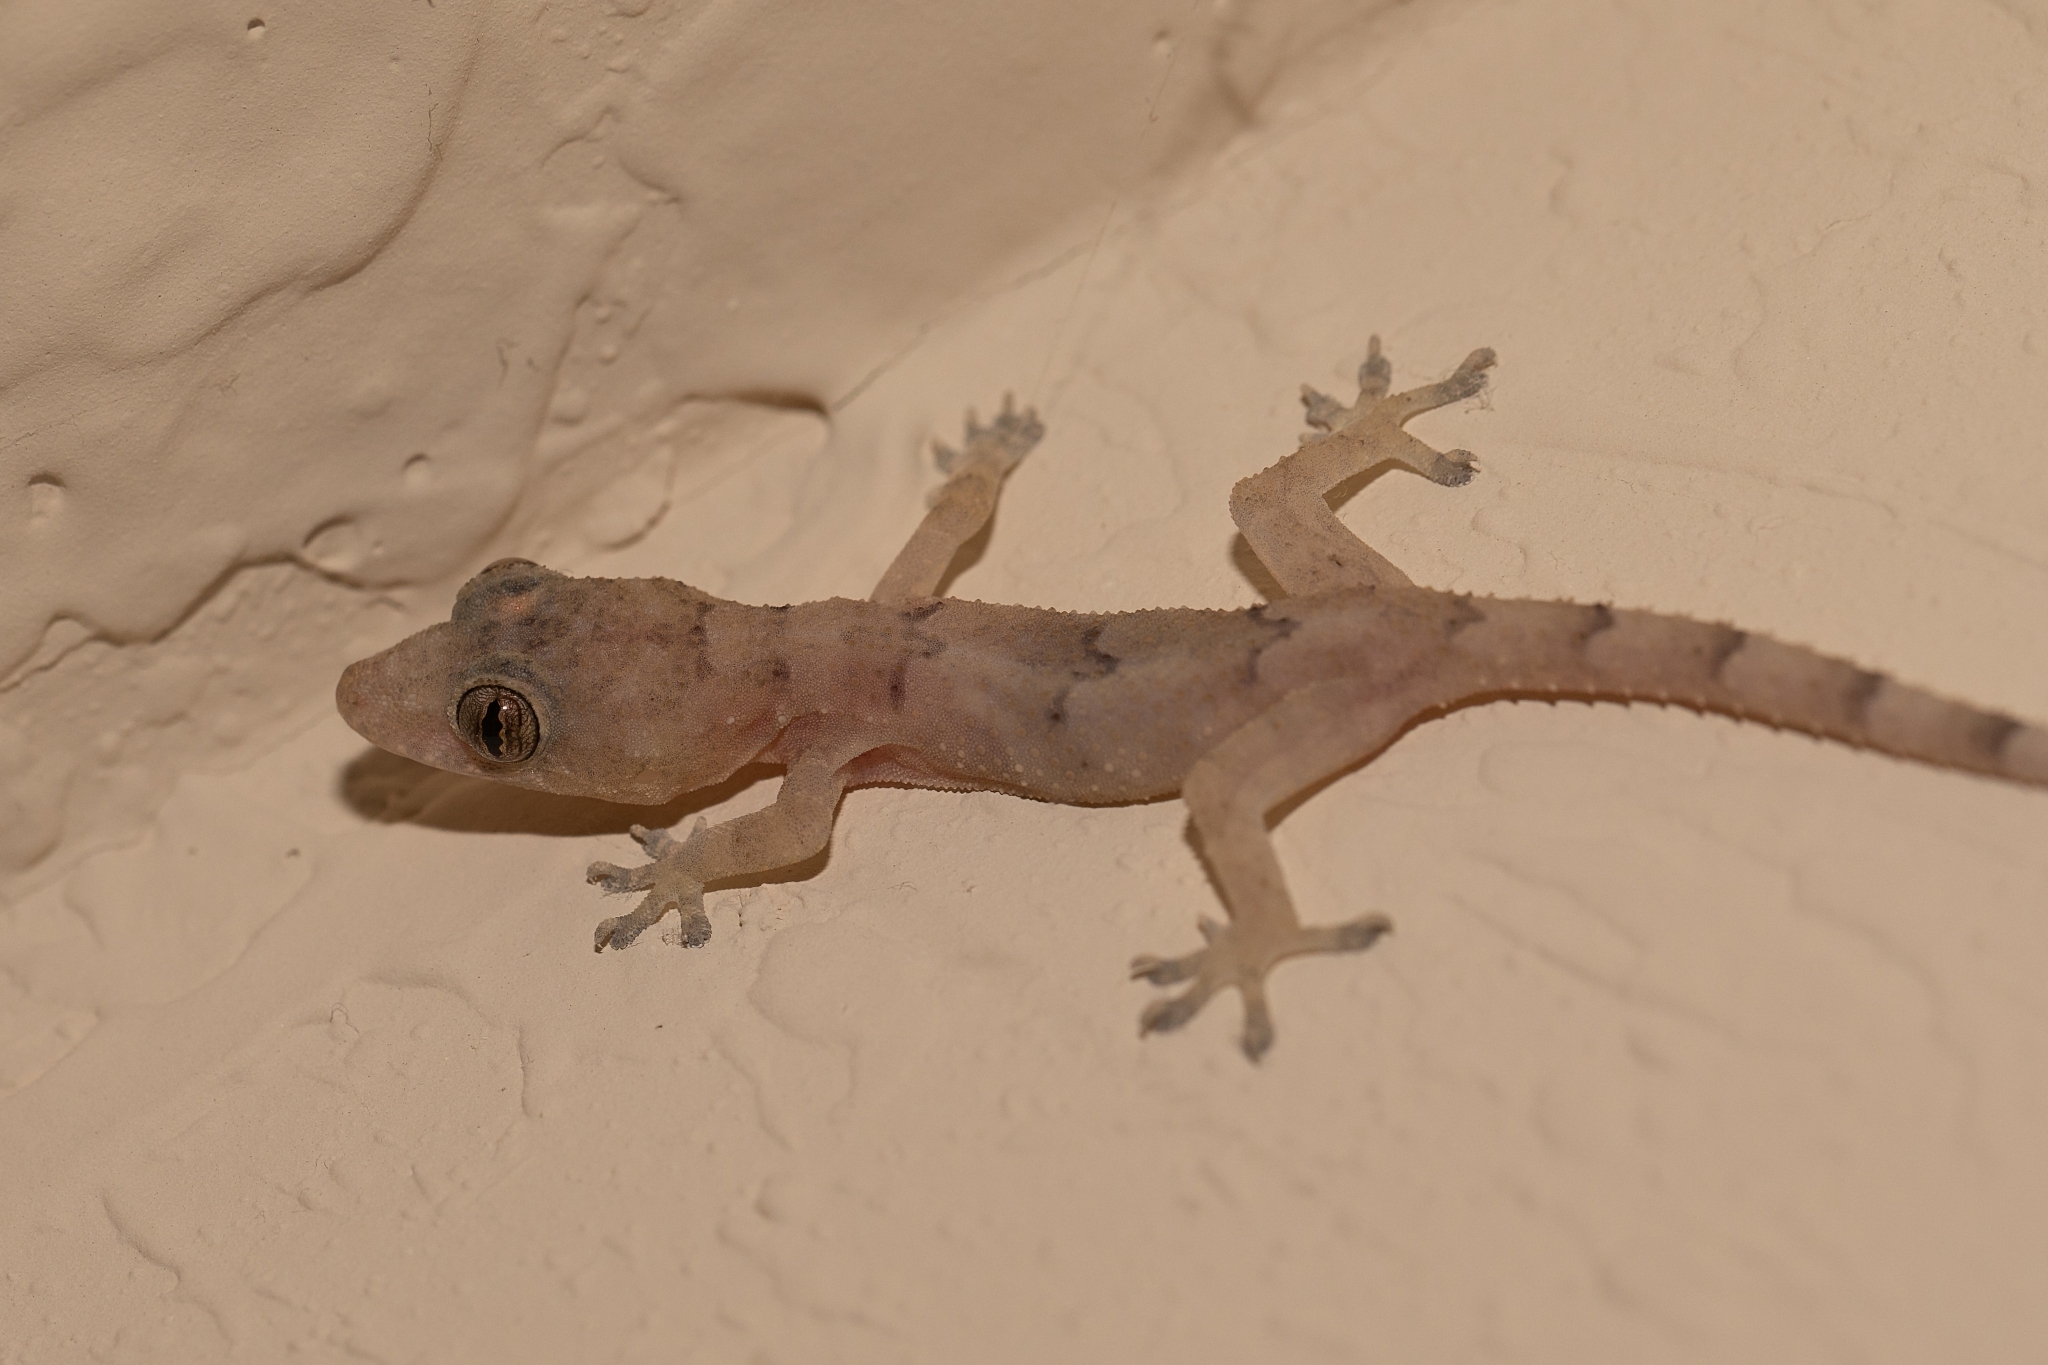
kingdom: Animalia
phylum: Chordata
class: Squamata
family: Gekkonidae
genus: Hemidactylus
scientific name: Hemidactylus mabouia
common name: House gecko
